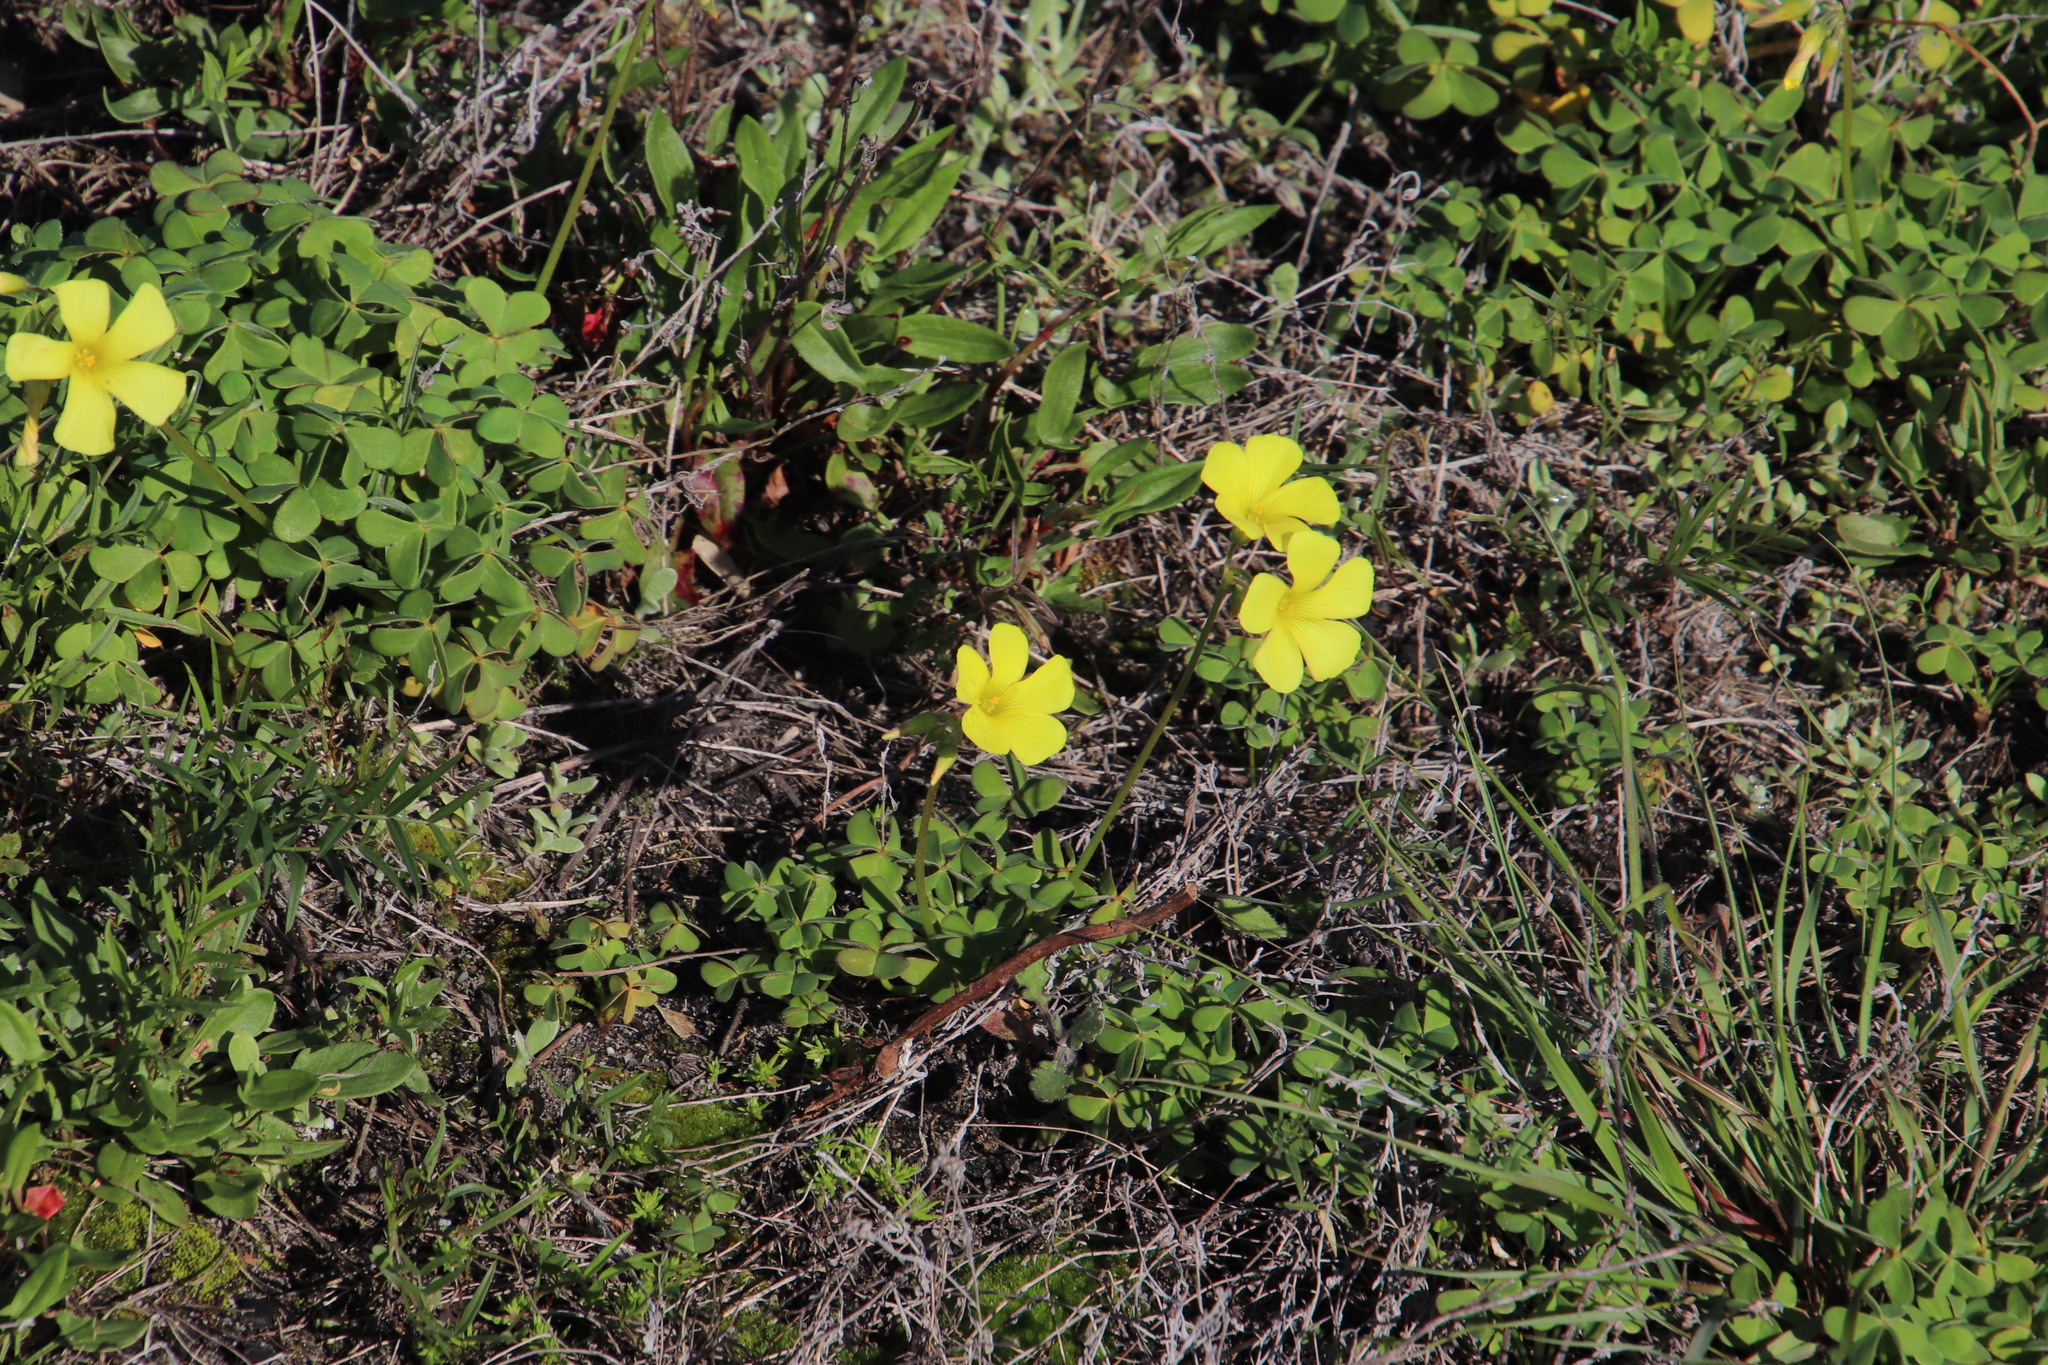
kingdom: Plantae
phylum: Tracheophyta
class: Magnoliopsida
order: Oxalidales
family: Oxalidaceae
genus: Oxalis
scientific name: Oxalis pes-caprae
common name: Bermuda-buttercup
